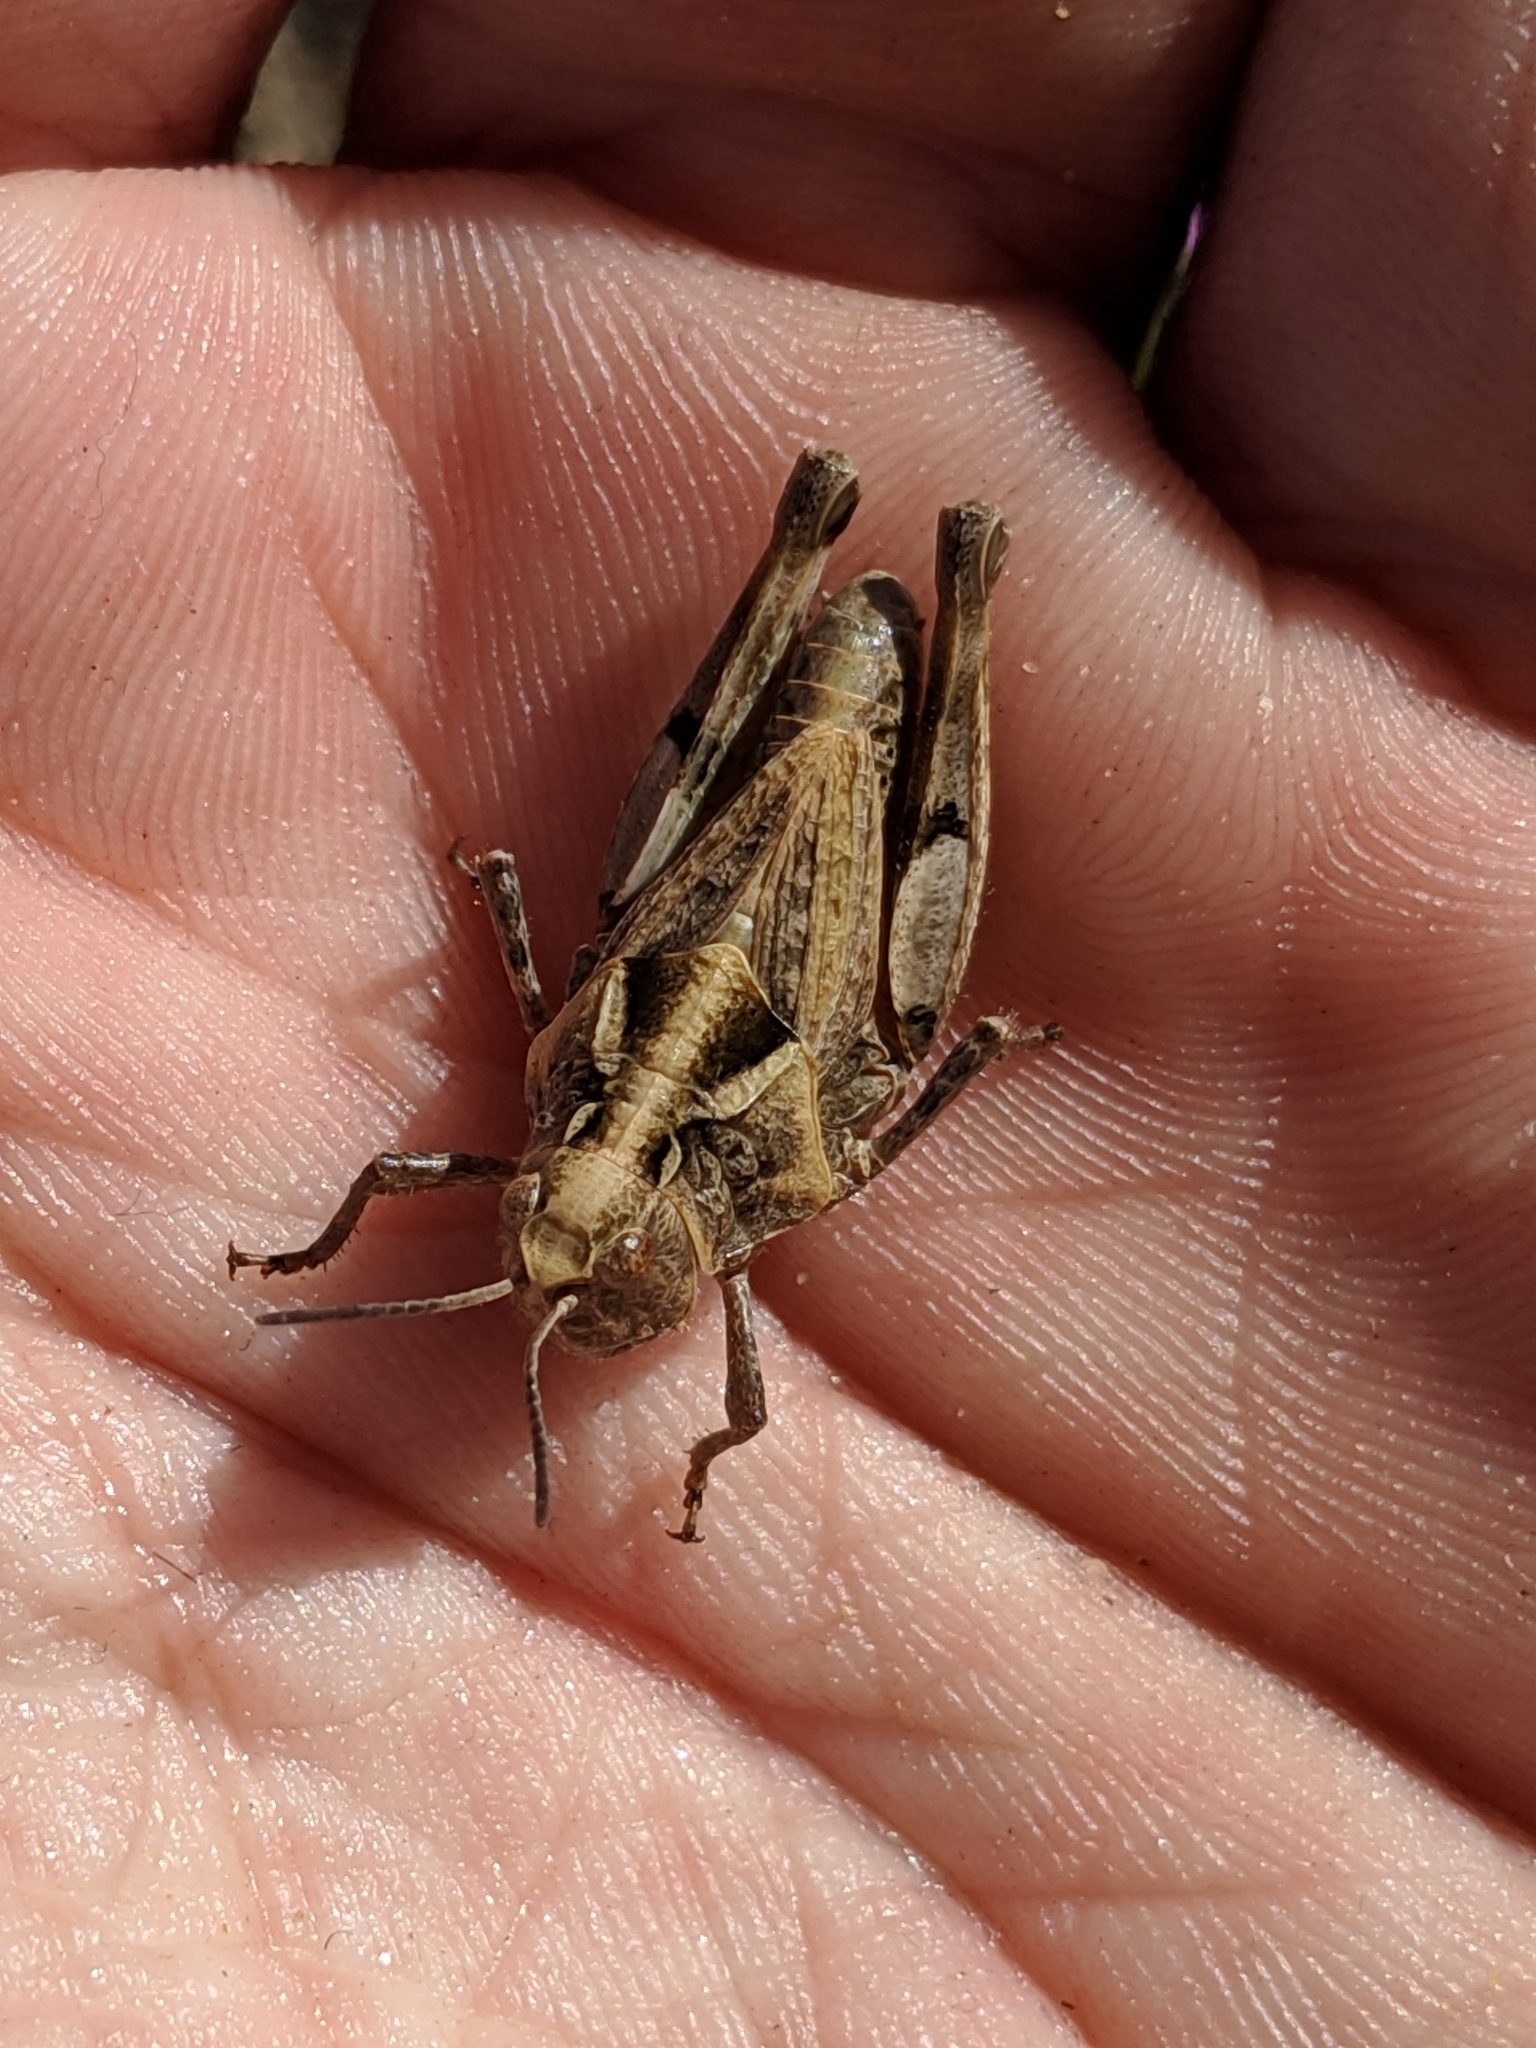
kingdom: Animalia
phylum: Arthropoda
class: Insecta
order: Orthoptera
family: Acrididae
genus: Esselenia
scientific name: Esselenia vanduzeei
